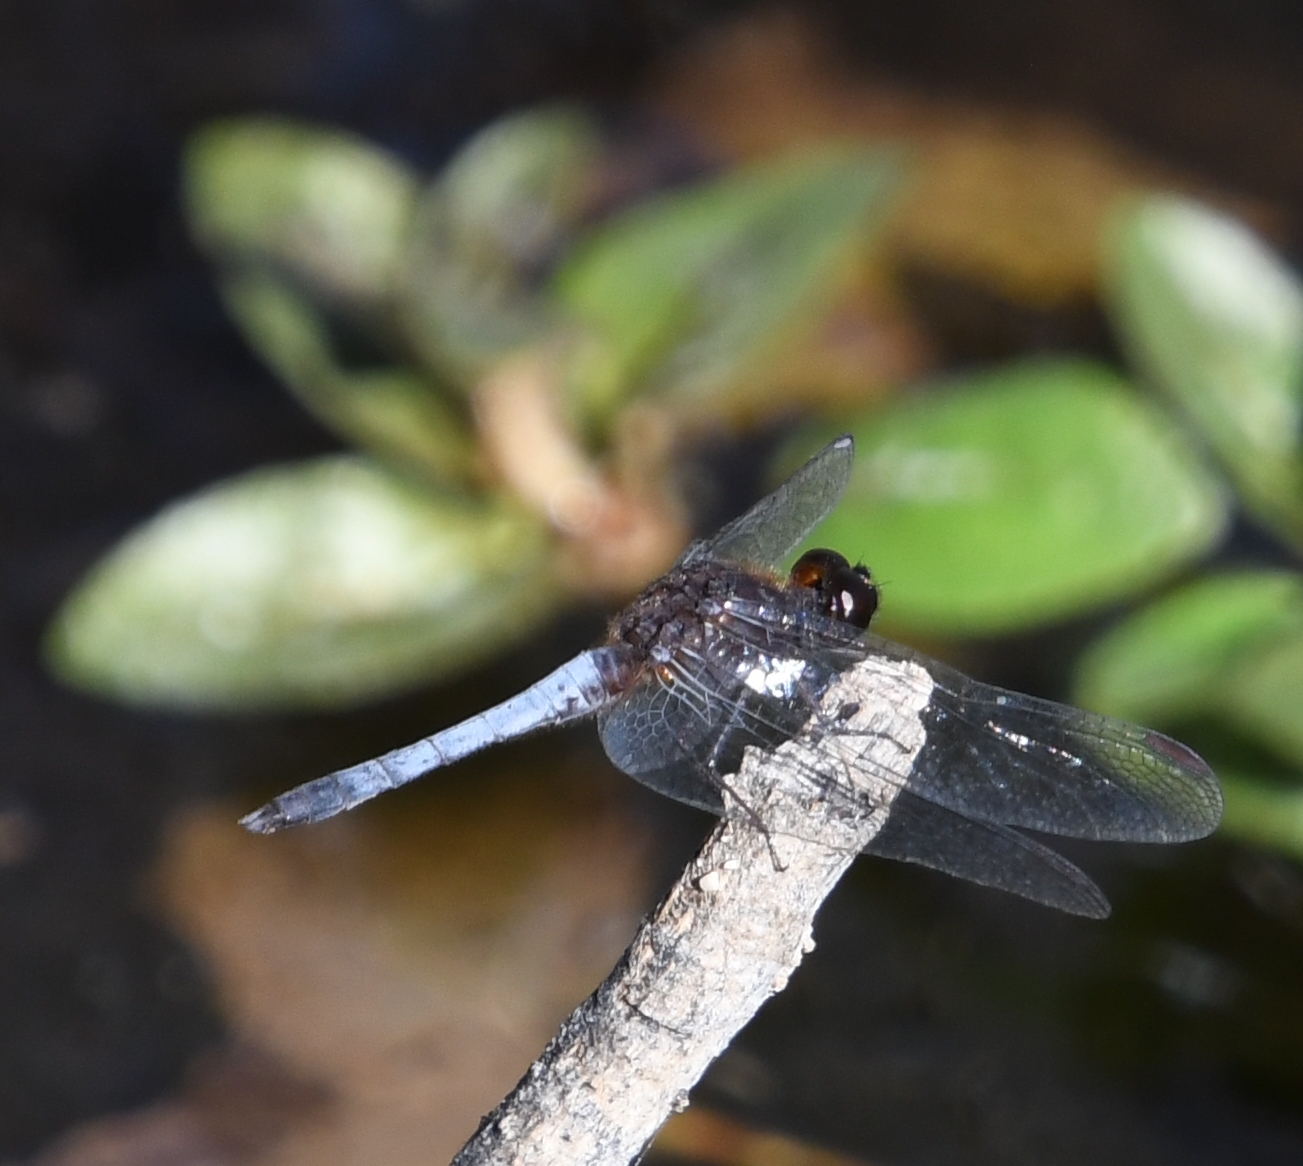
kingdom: Animalia
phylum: Arthropoda
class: Insecta
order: Odonata
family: Libellulidae
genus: Erythrodiplax
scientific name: Erythrodiplax basifusca
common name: Plateau dragonlet
